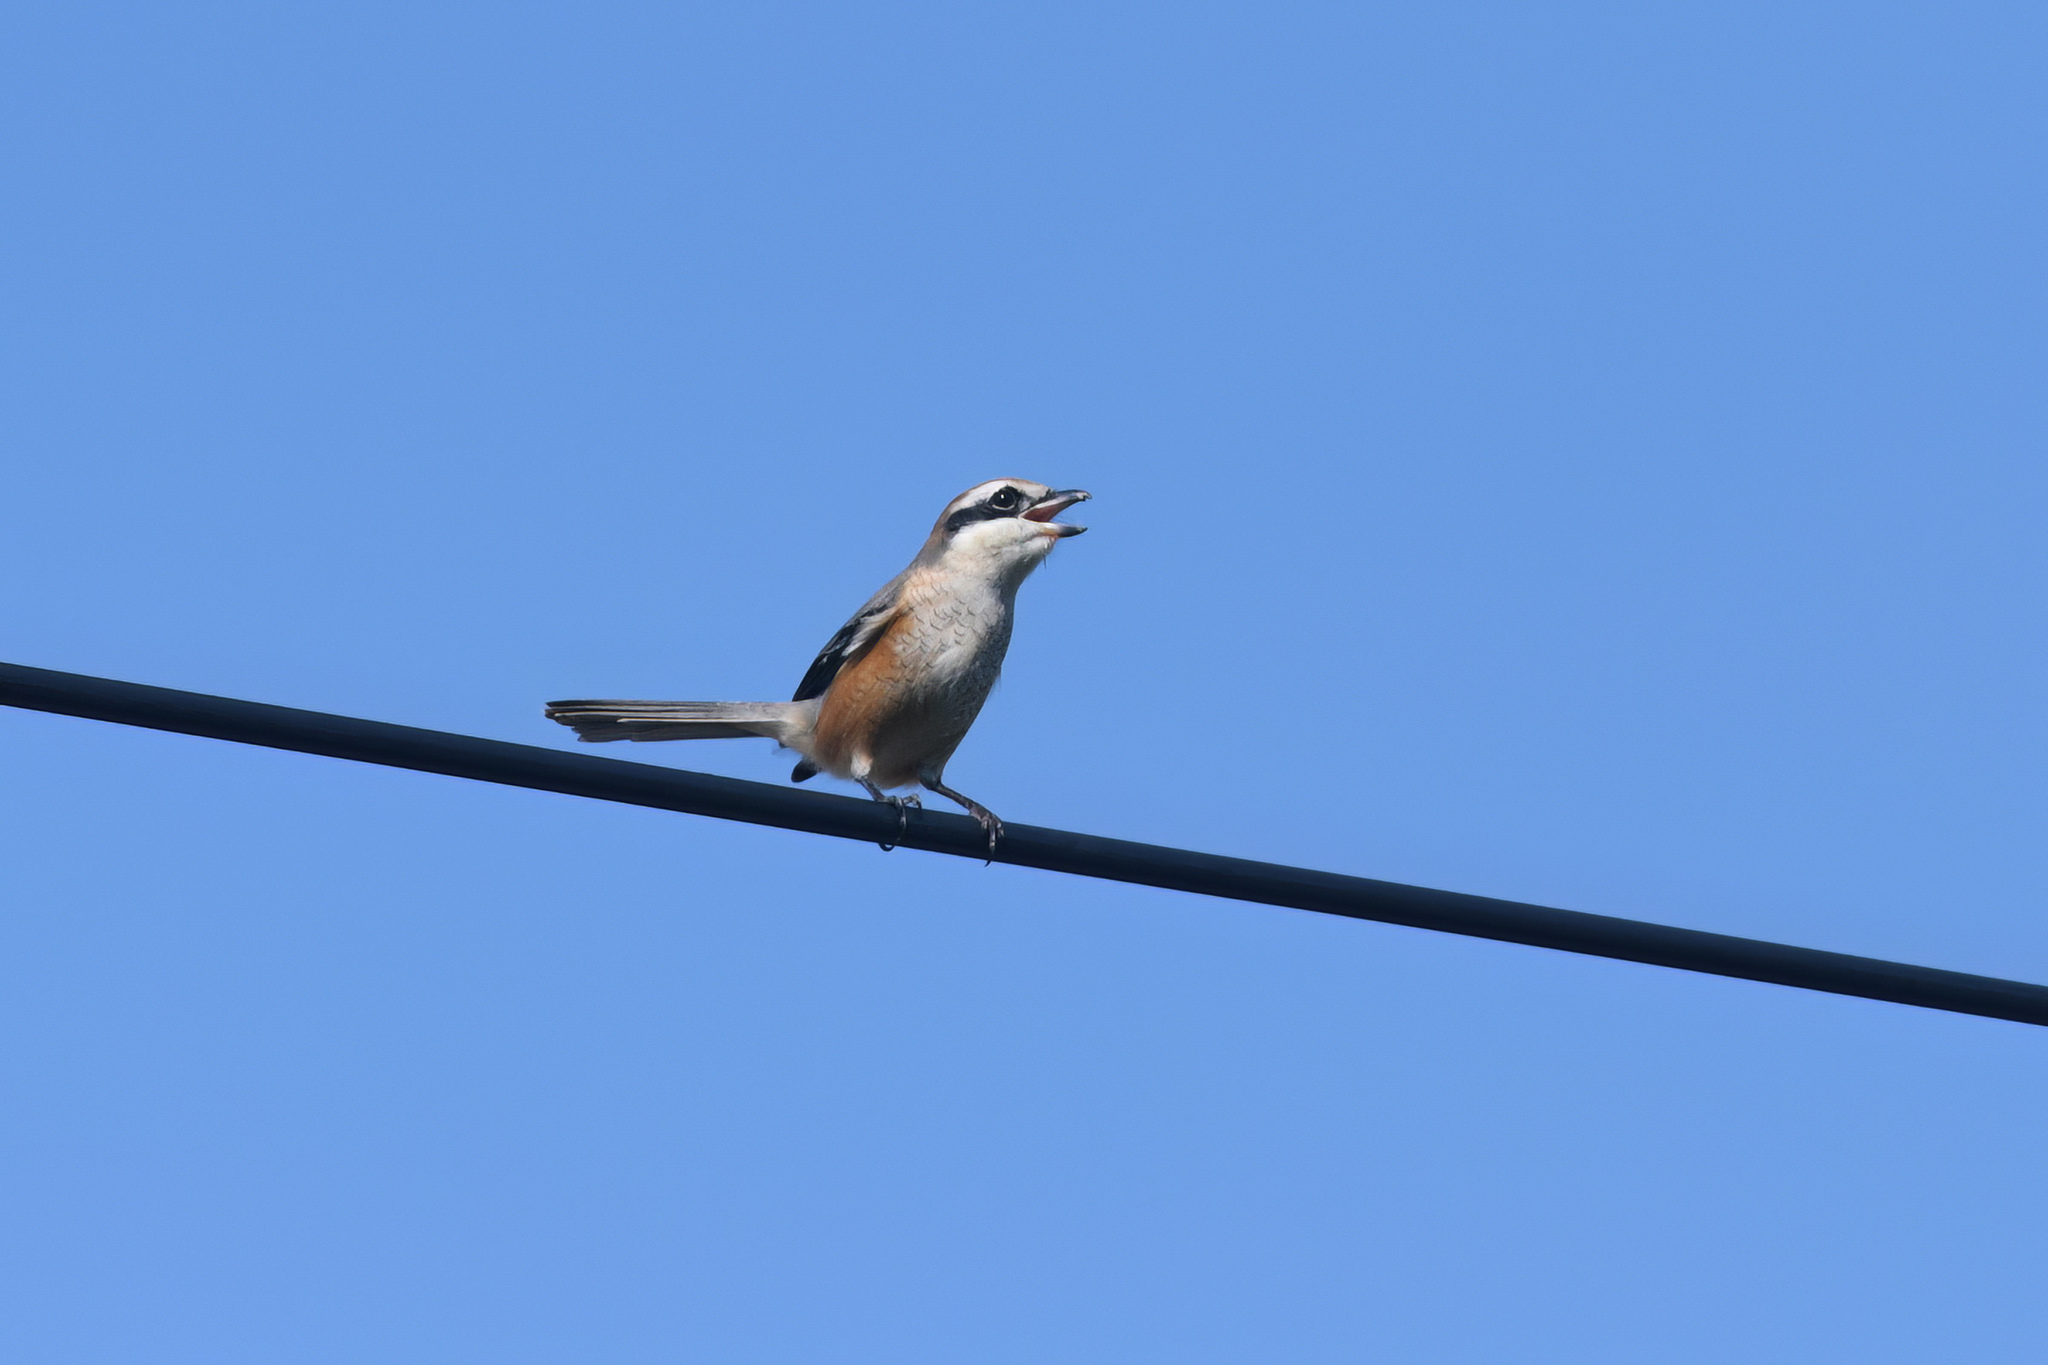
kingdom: Animalia
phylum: Chordata
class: Aves
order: Passeriformes
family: Laniidae
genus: Lanius
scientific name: Lanius bucephalus
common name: Bull-headed shrike
